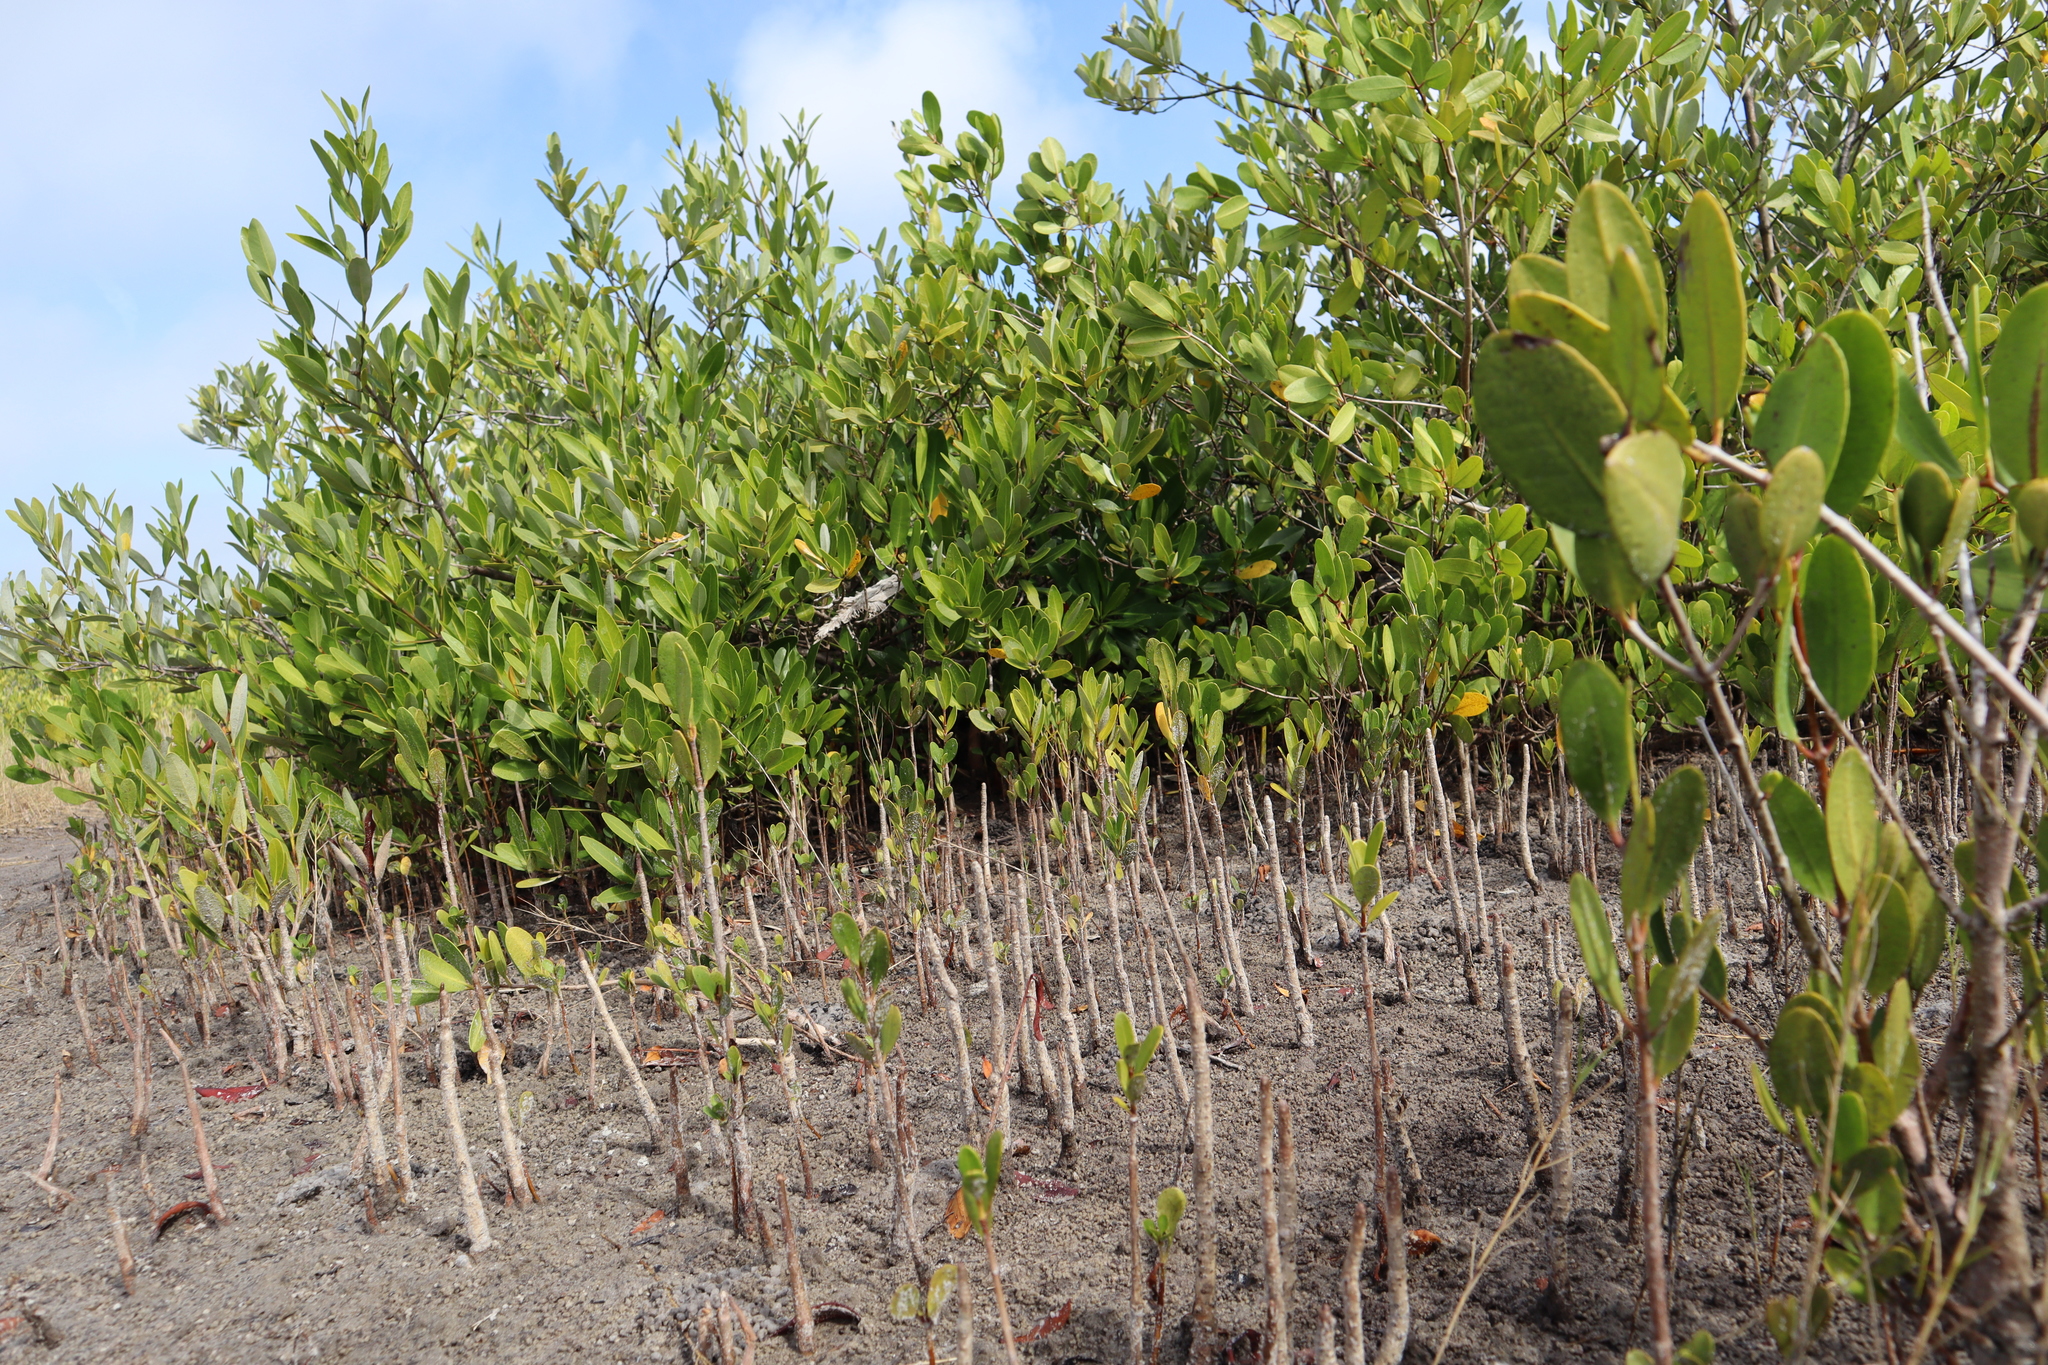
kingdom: Plantae
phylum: Tracheophyta
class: Magnoliopsida
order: Myrtales
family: Combretaceae
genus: Laguncularia
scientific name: Laguncularia racemosa
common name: White mangrove
